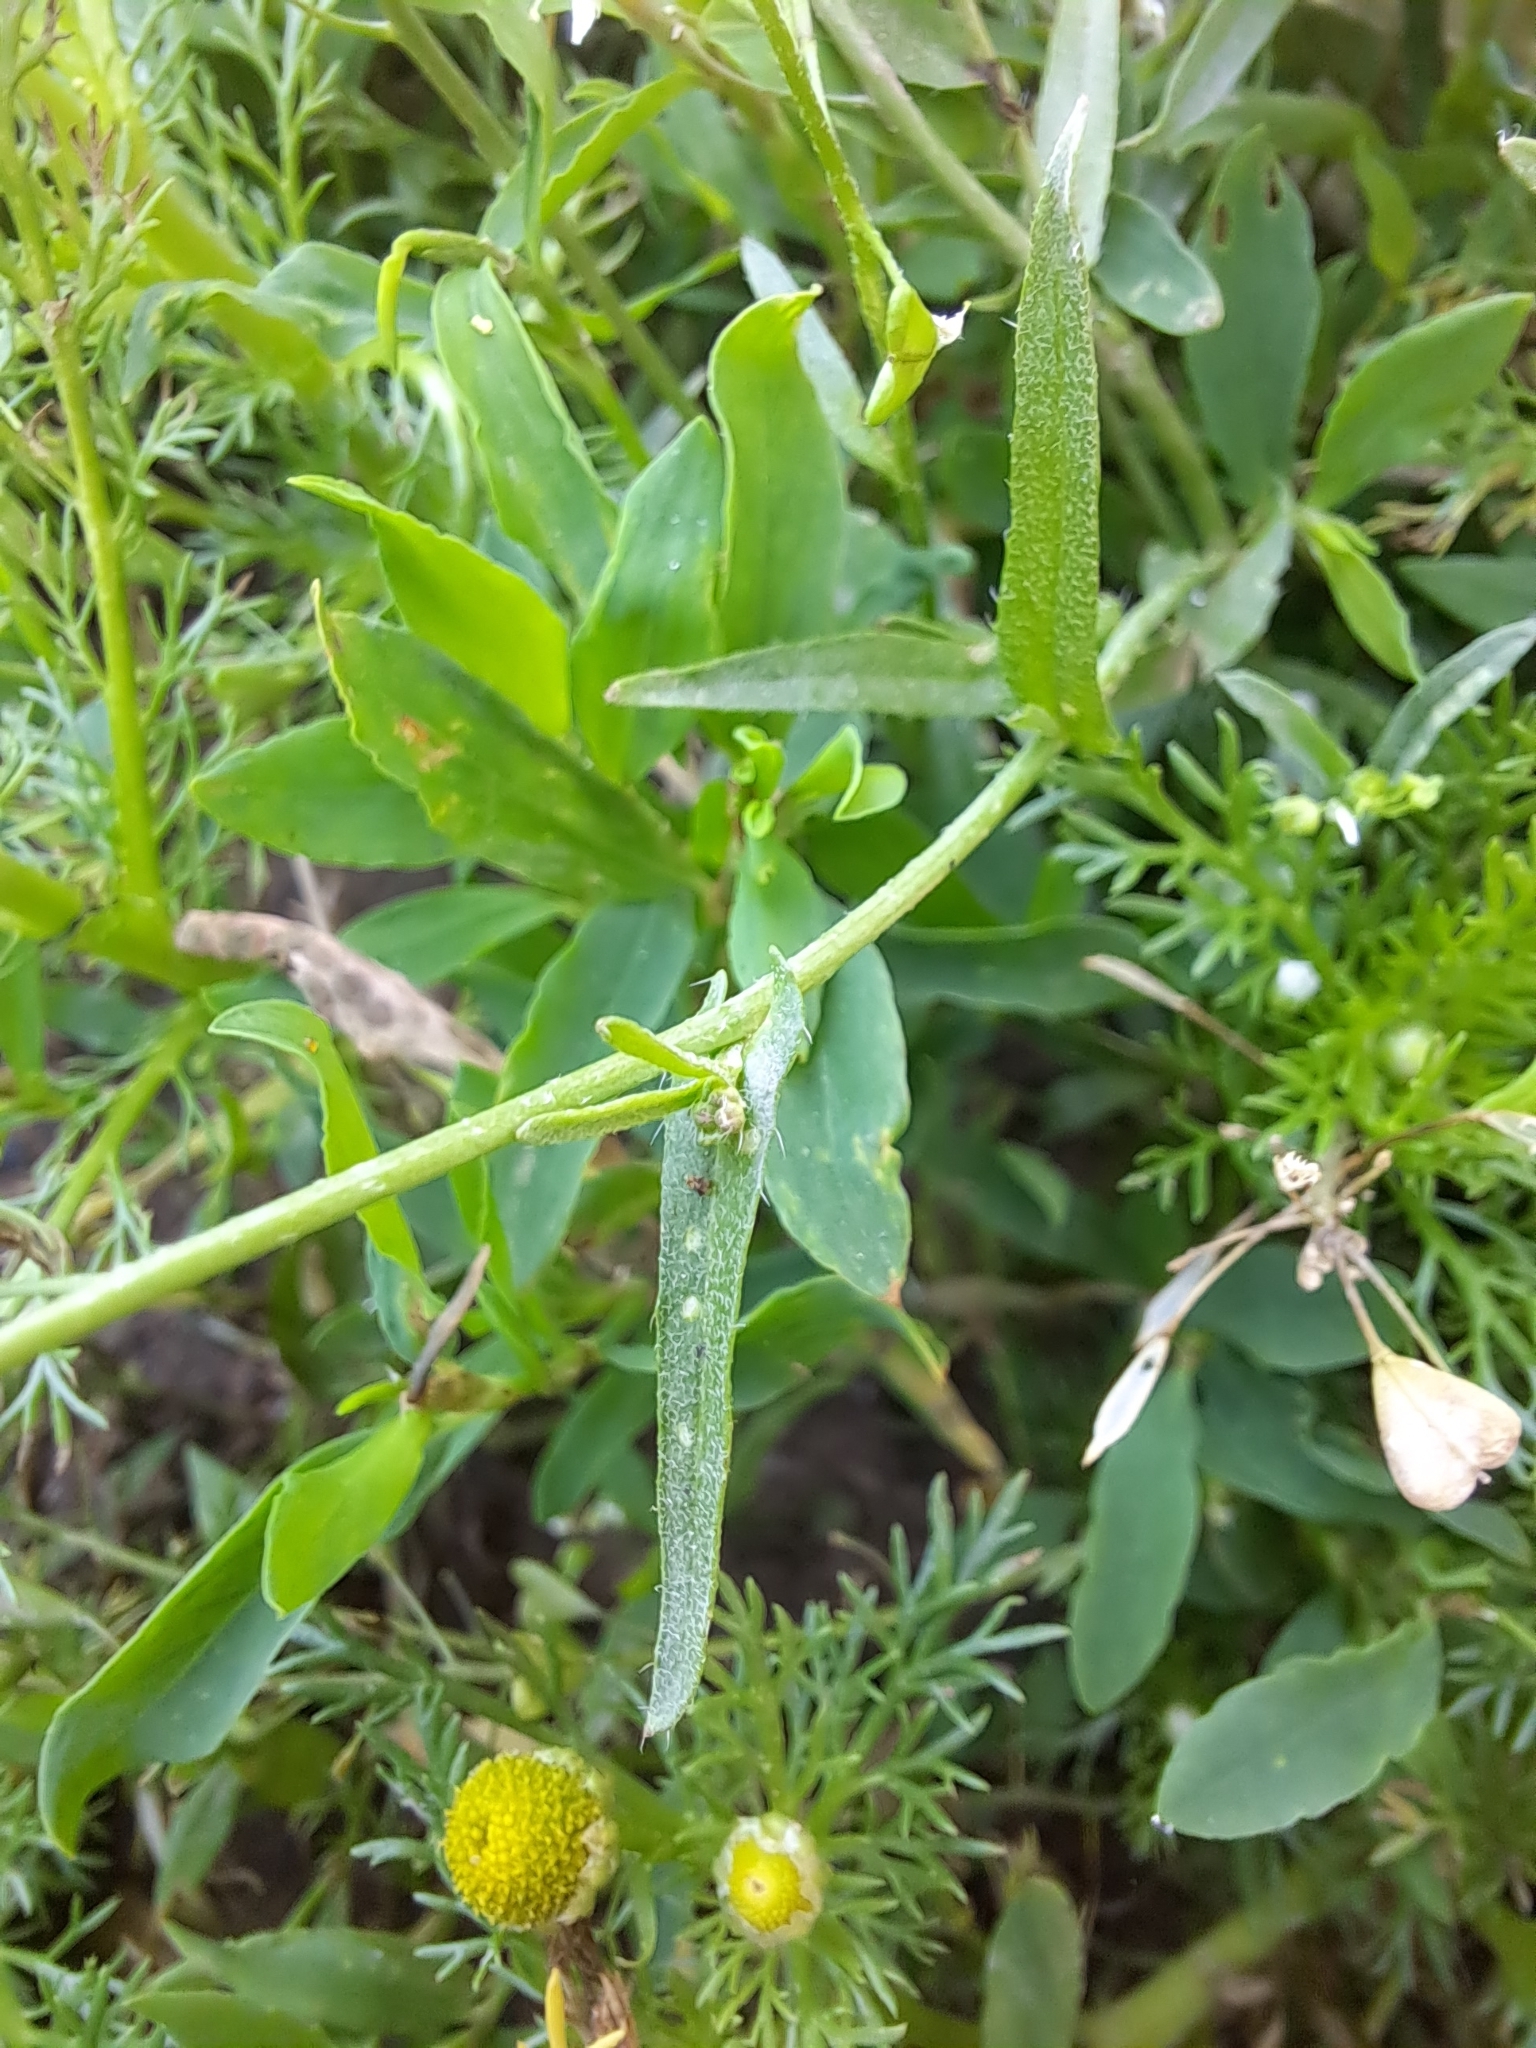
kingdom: Plantae
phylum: Tracheophyta
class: Magnoliopsida
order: Brassicales
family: Brassicaceae
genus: Capsella
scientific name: Capsella bursa-pastoris
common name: Shepherd's purse
